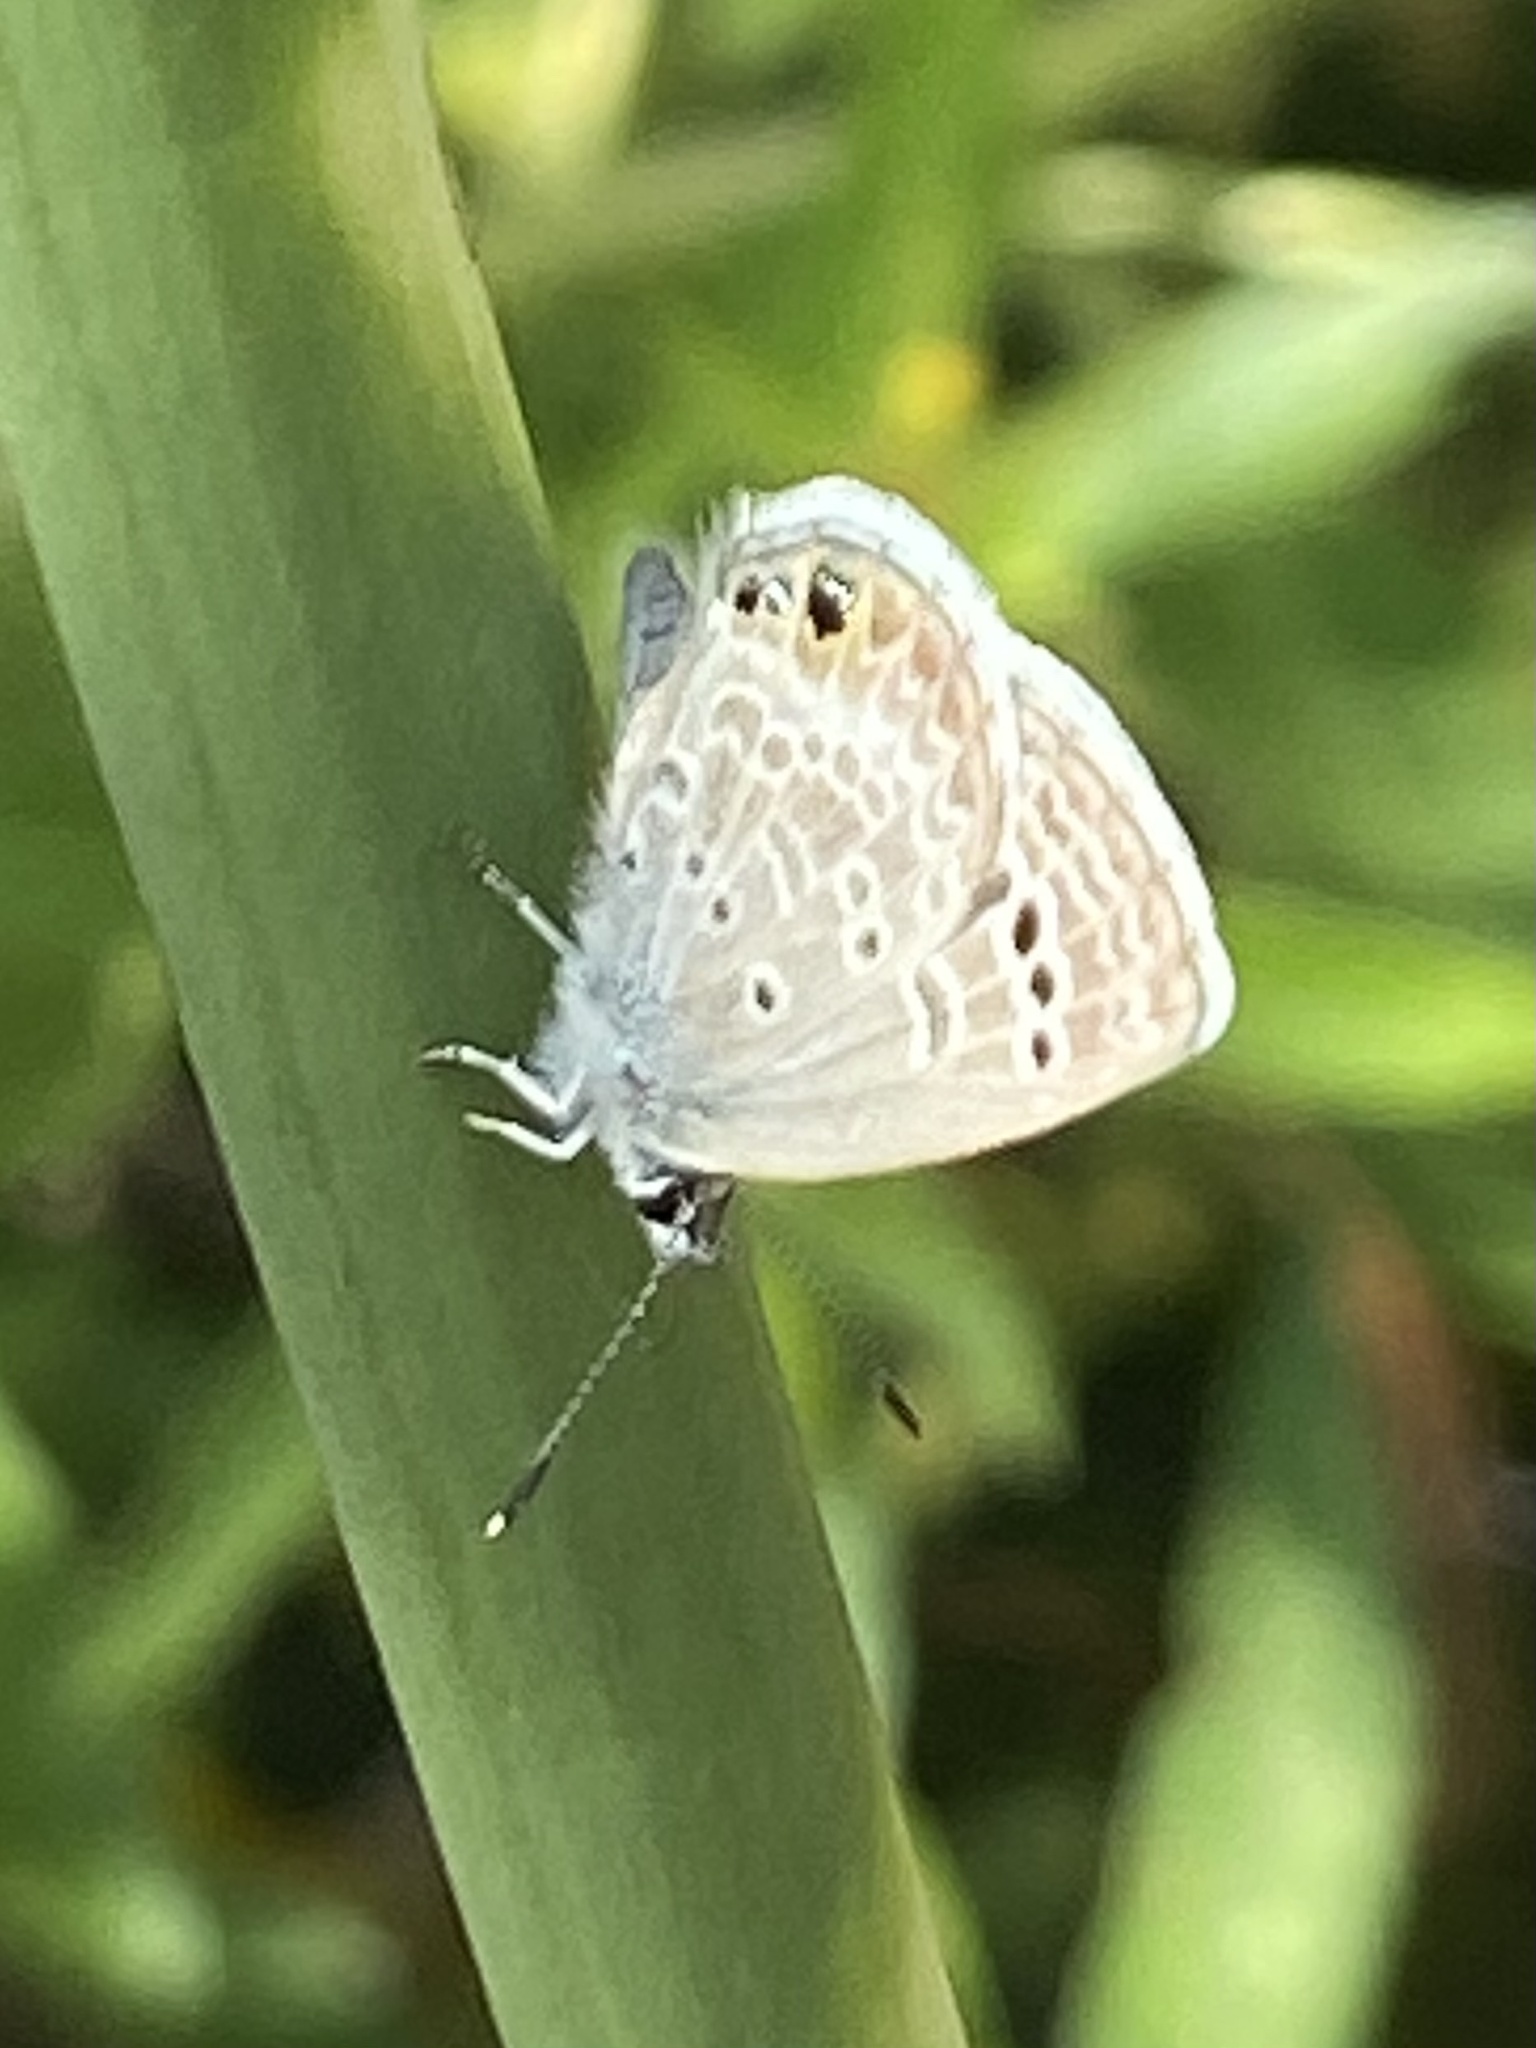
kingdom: Animalia
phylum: Arthropoda
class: Insecta
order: Lepidoptera
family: Lycaenidae
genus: Echinargus
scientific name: Echinargus isola
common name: Reakirt's blue
